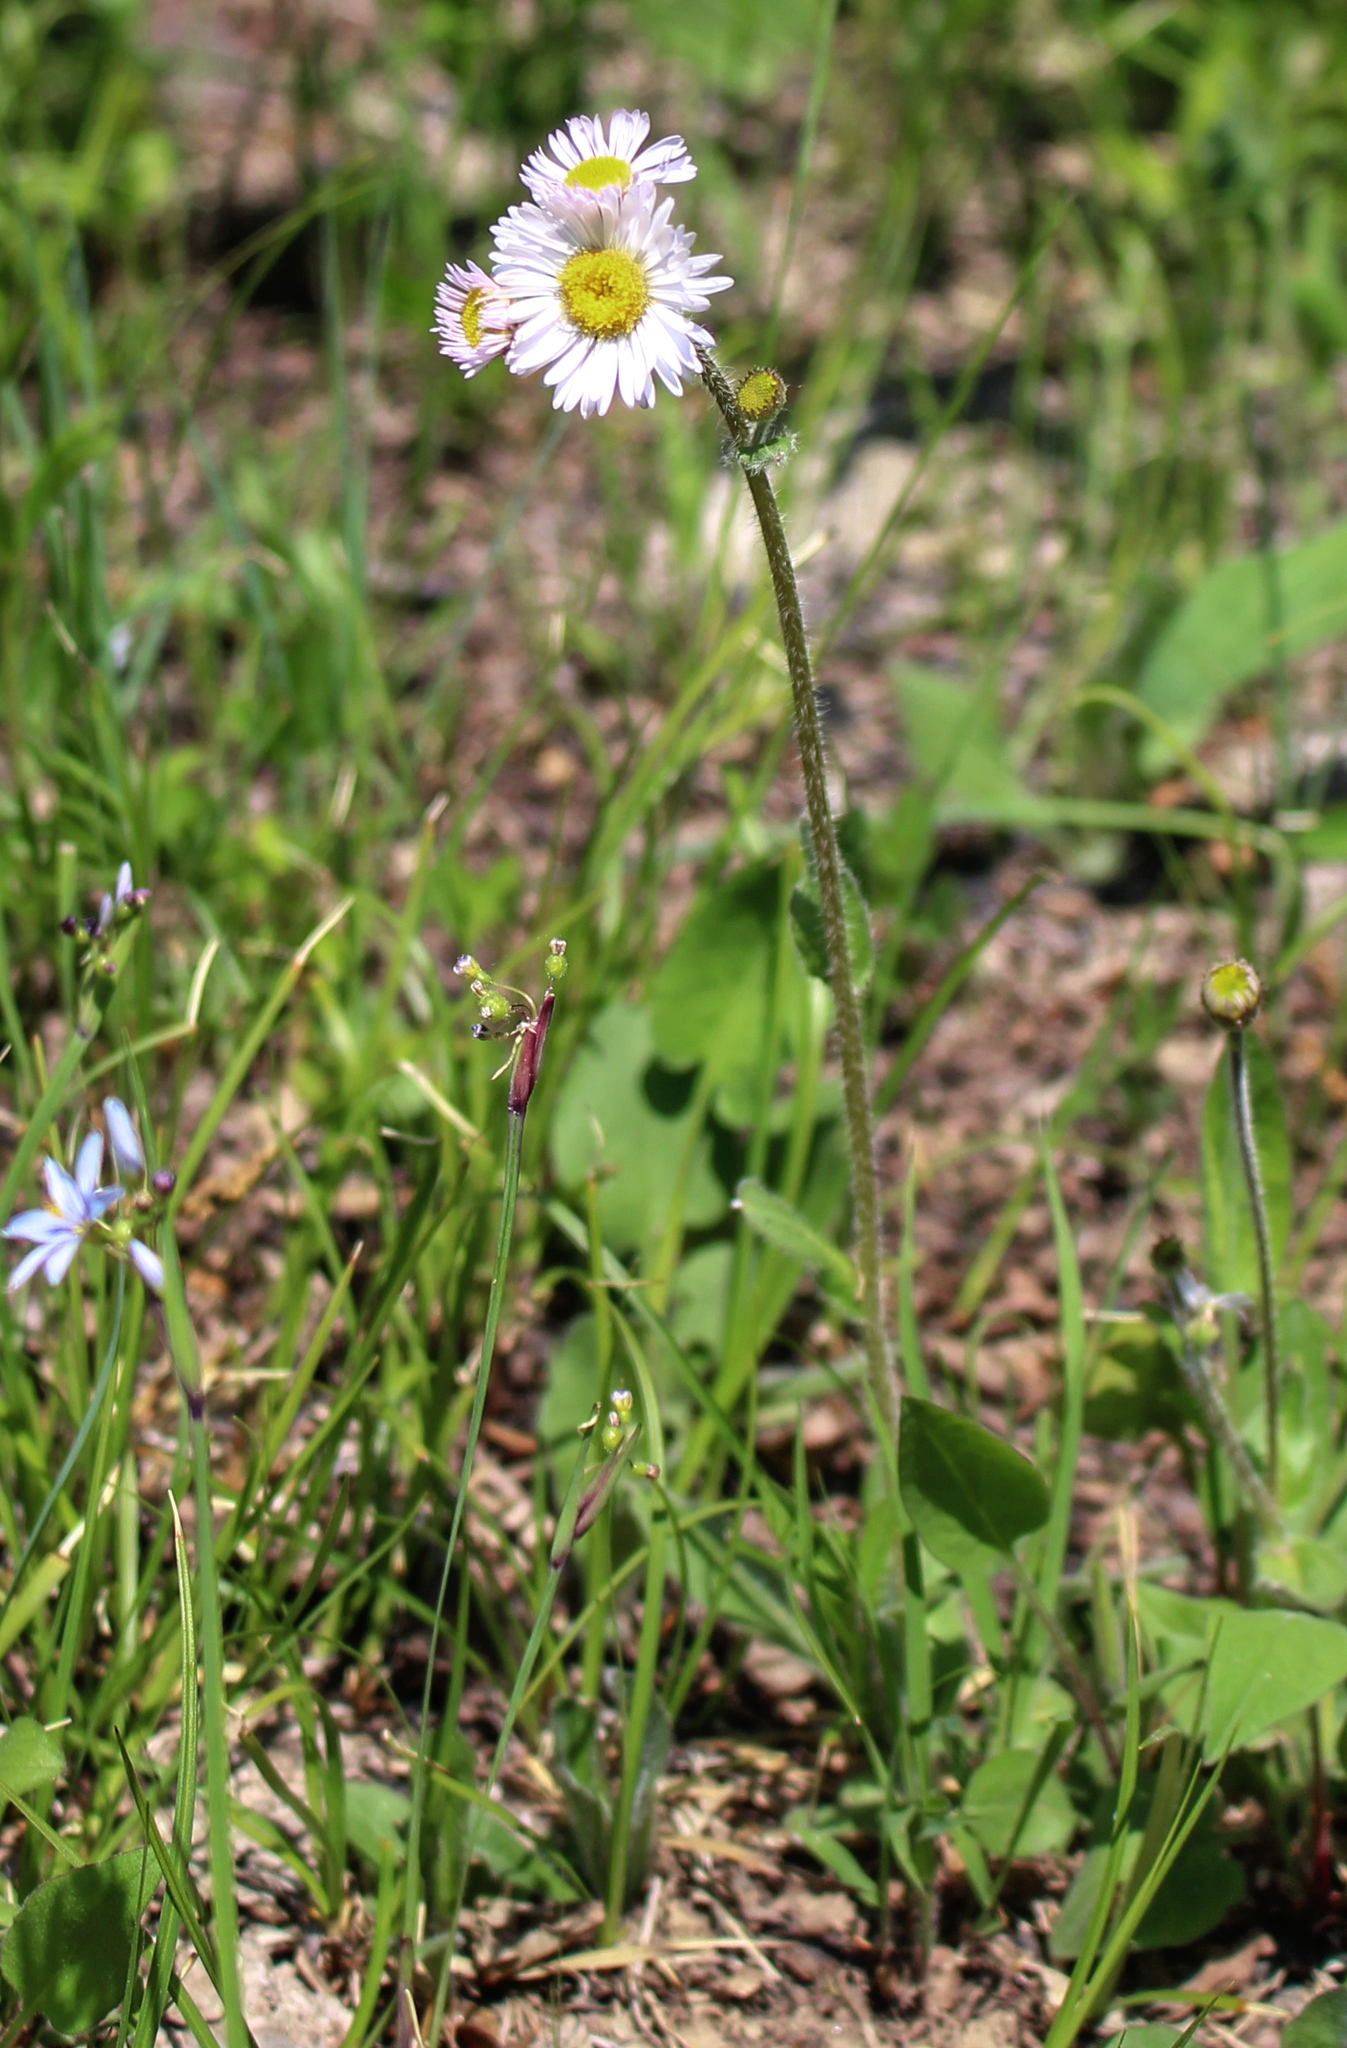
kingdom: Plantae
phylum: Tracheophyta
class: Magnoliopsida
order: Asterales
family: Asteraceae
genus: Erigeron
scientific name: Erigeron pulchellus
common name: Hairy fleabane
